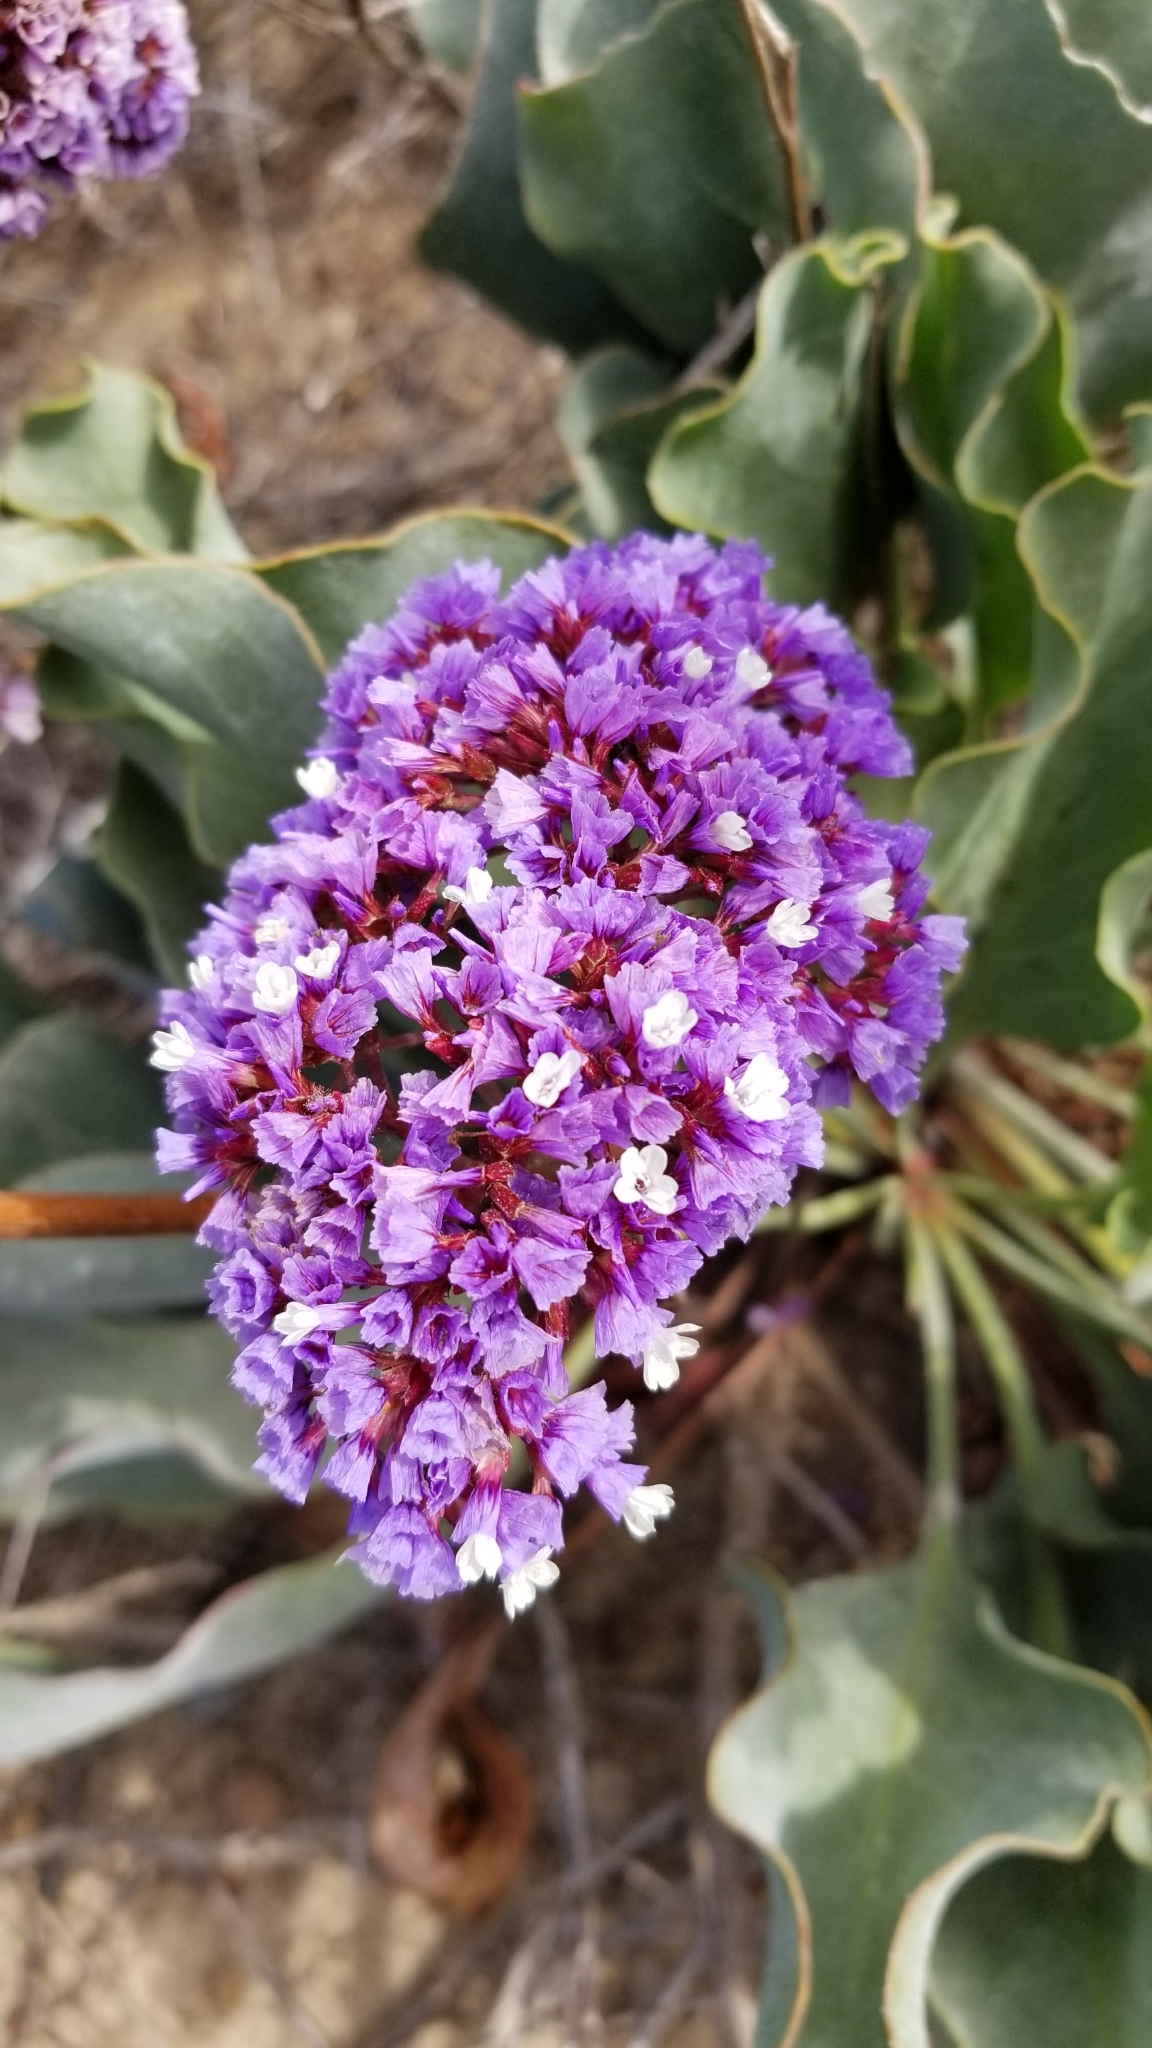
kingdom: Plantae
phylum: Tracheophyta
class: Magnoliopsida
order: Caryophyllales
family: Plumbaginaceae
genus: Limonium
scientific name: Limonium perezii
